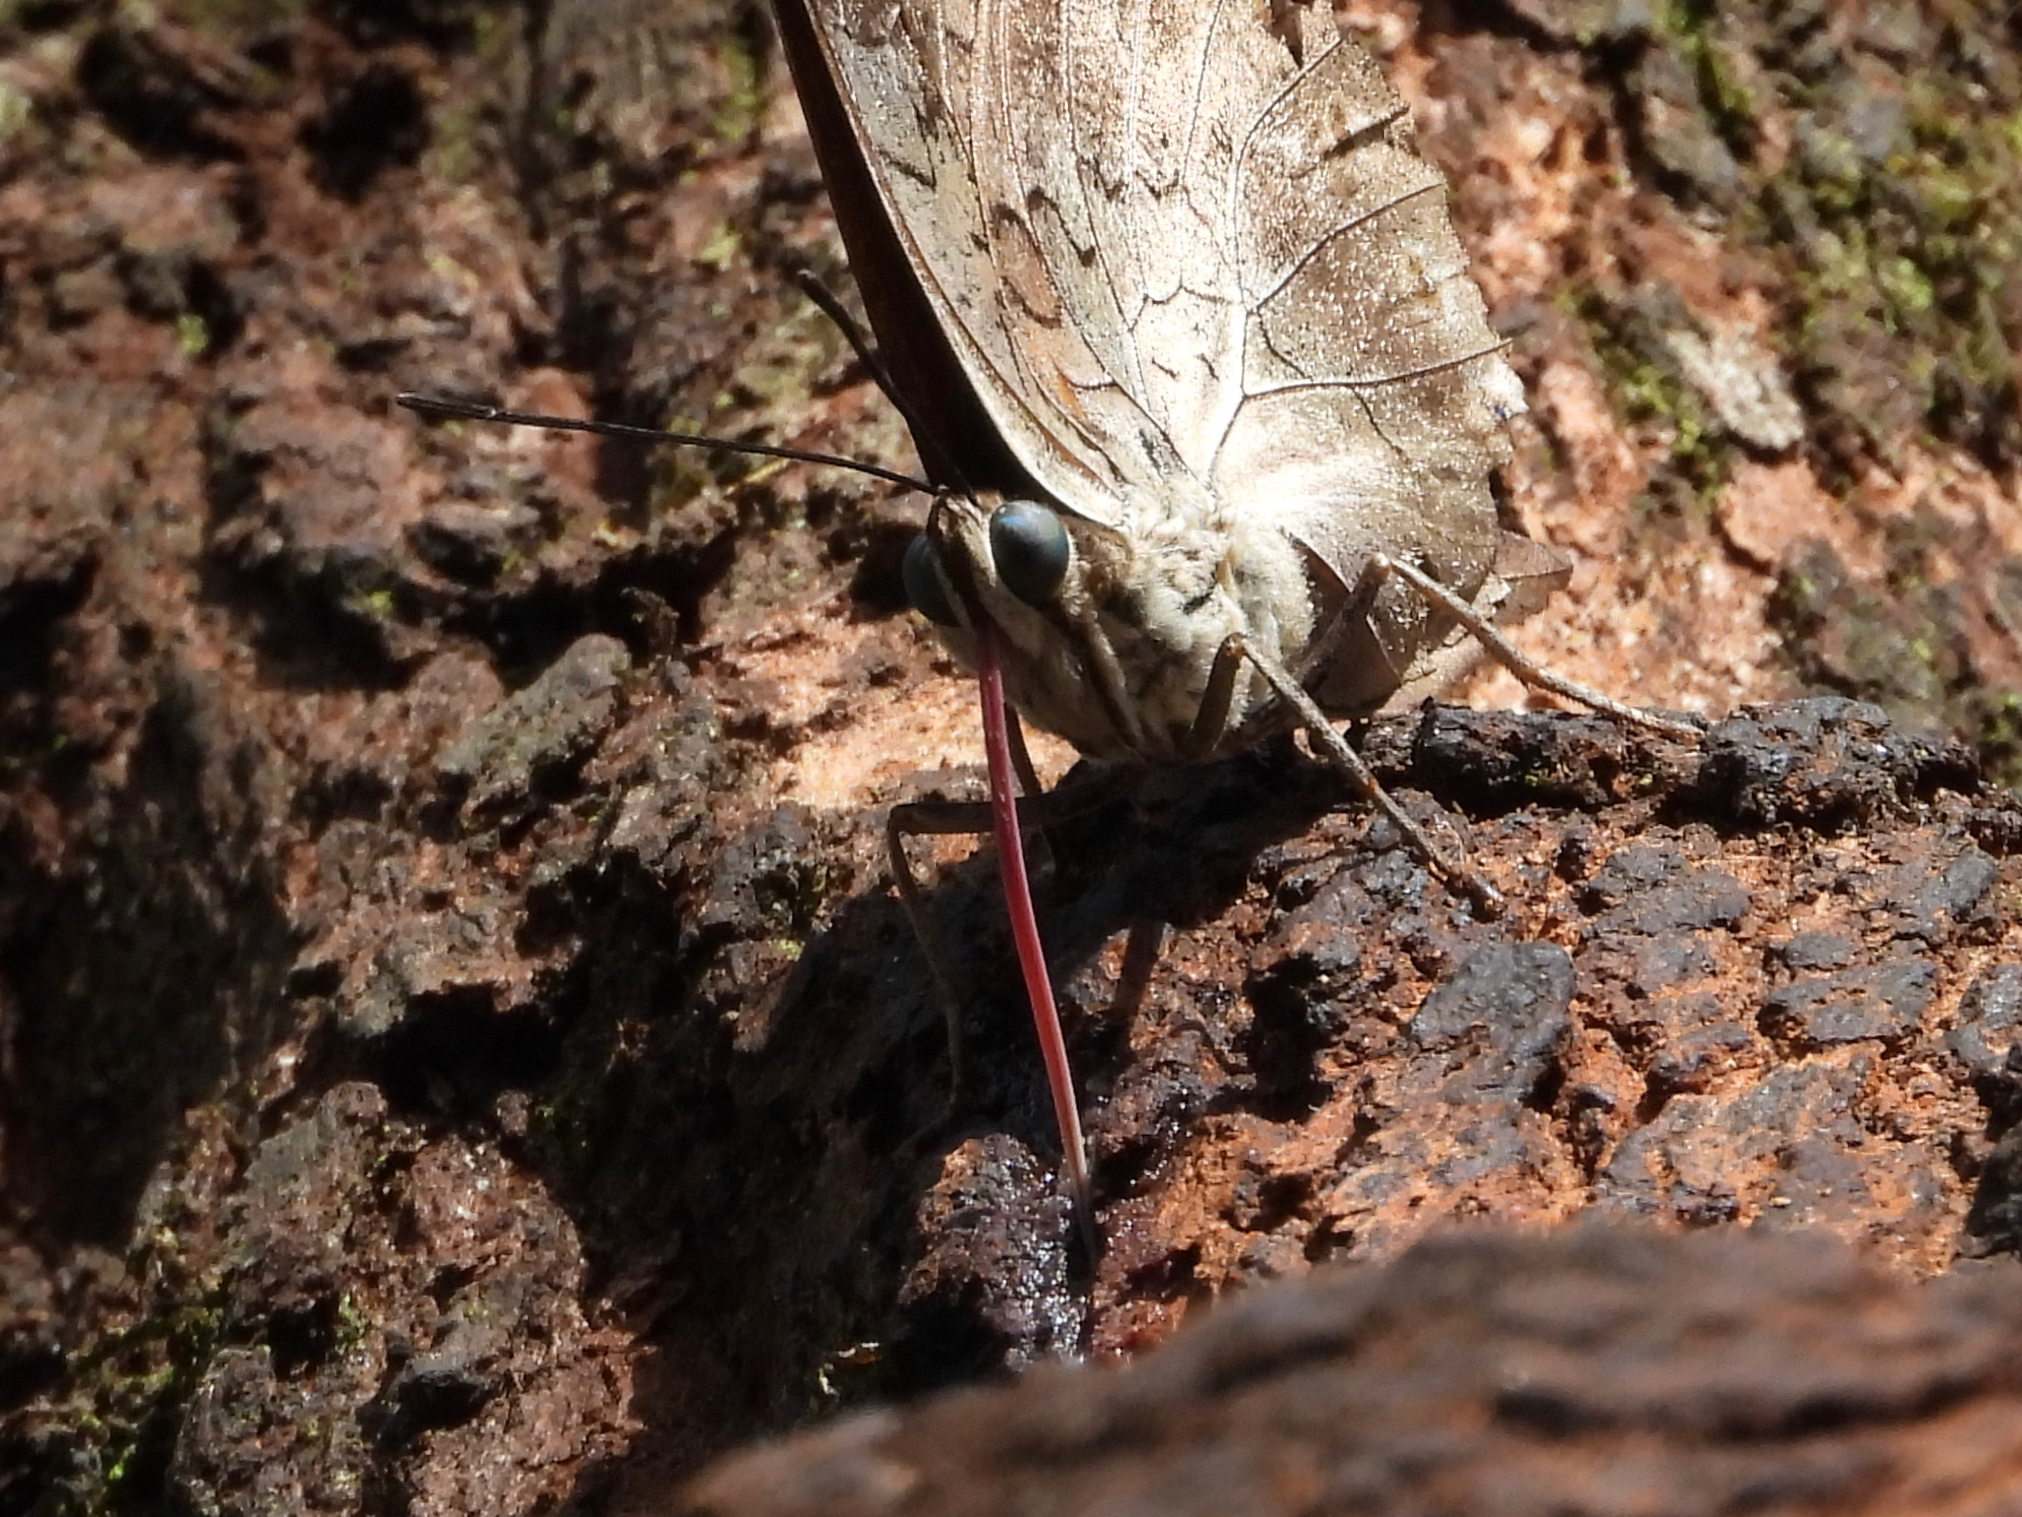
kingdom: Animalia
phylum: Arthropoda
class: Insecta
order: Lepidoptera
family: Nymphalidae
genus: Prepona
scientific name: Prepona demophoon
